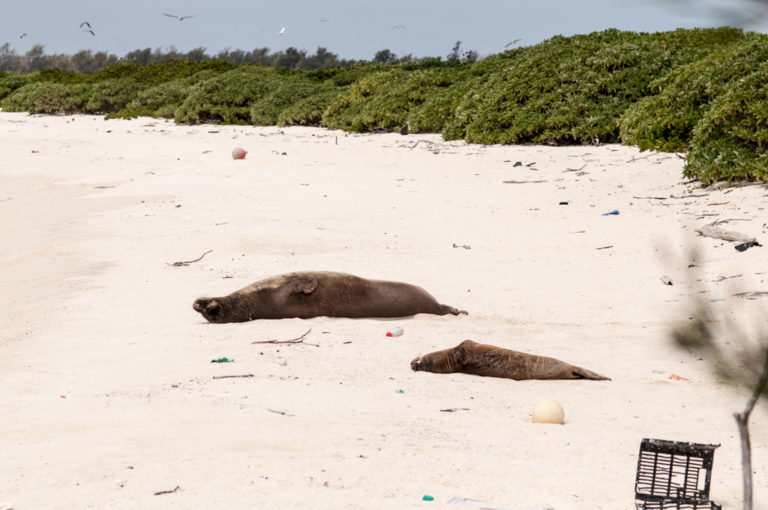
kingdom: Animalia
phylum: Chordata
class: Mammalia
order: Carnivora
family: Phocidae
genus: Neomonachus
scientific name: Neomonachus schauinslandi
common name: Hawaiian monk seal
